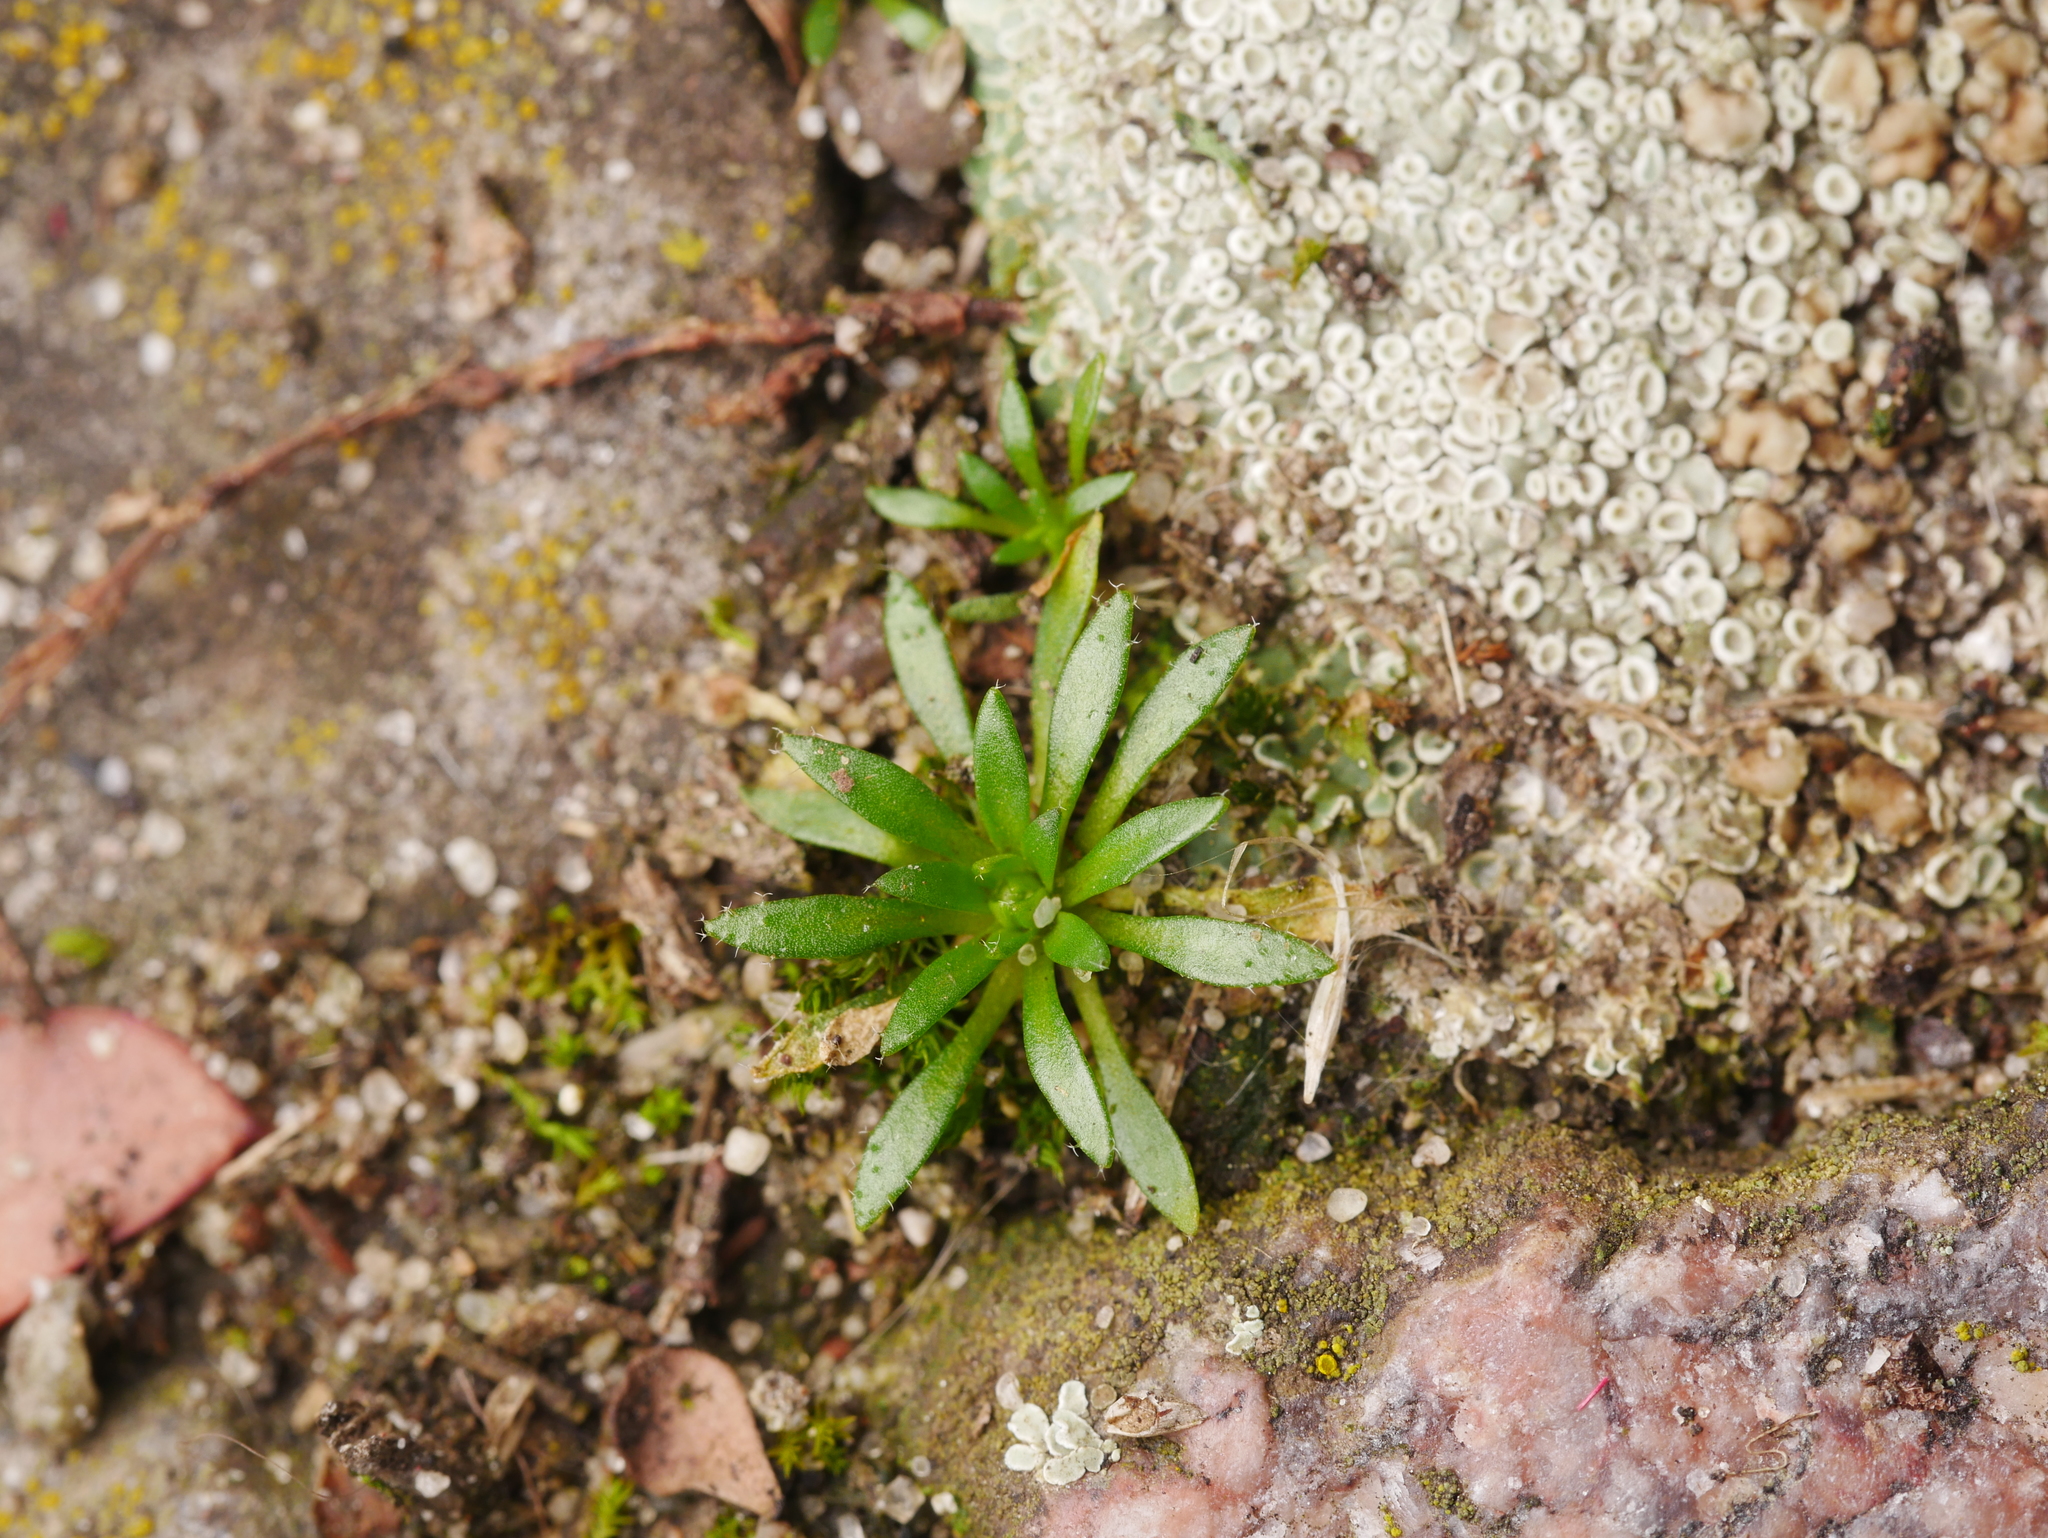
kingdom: Plantae
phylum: Tracheophyta
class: Magnoliopsida
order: Brassicales
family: Brassicaceae
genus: Draba
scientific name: Draba verna
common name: Spring draba
